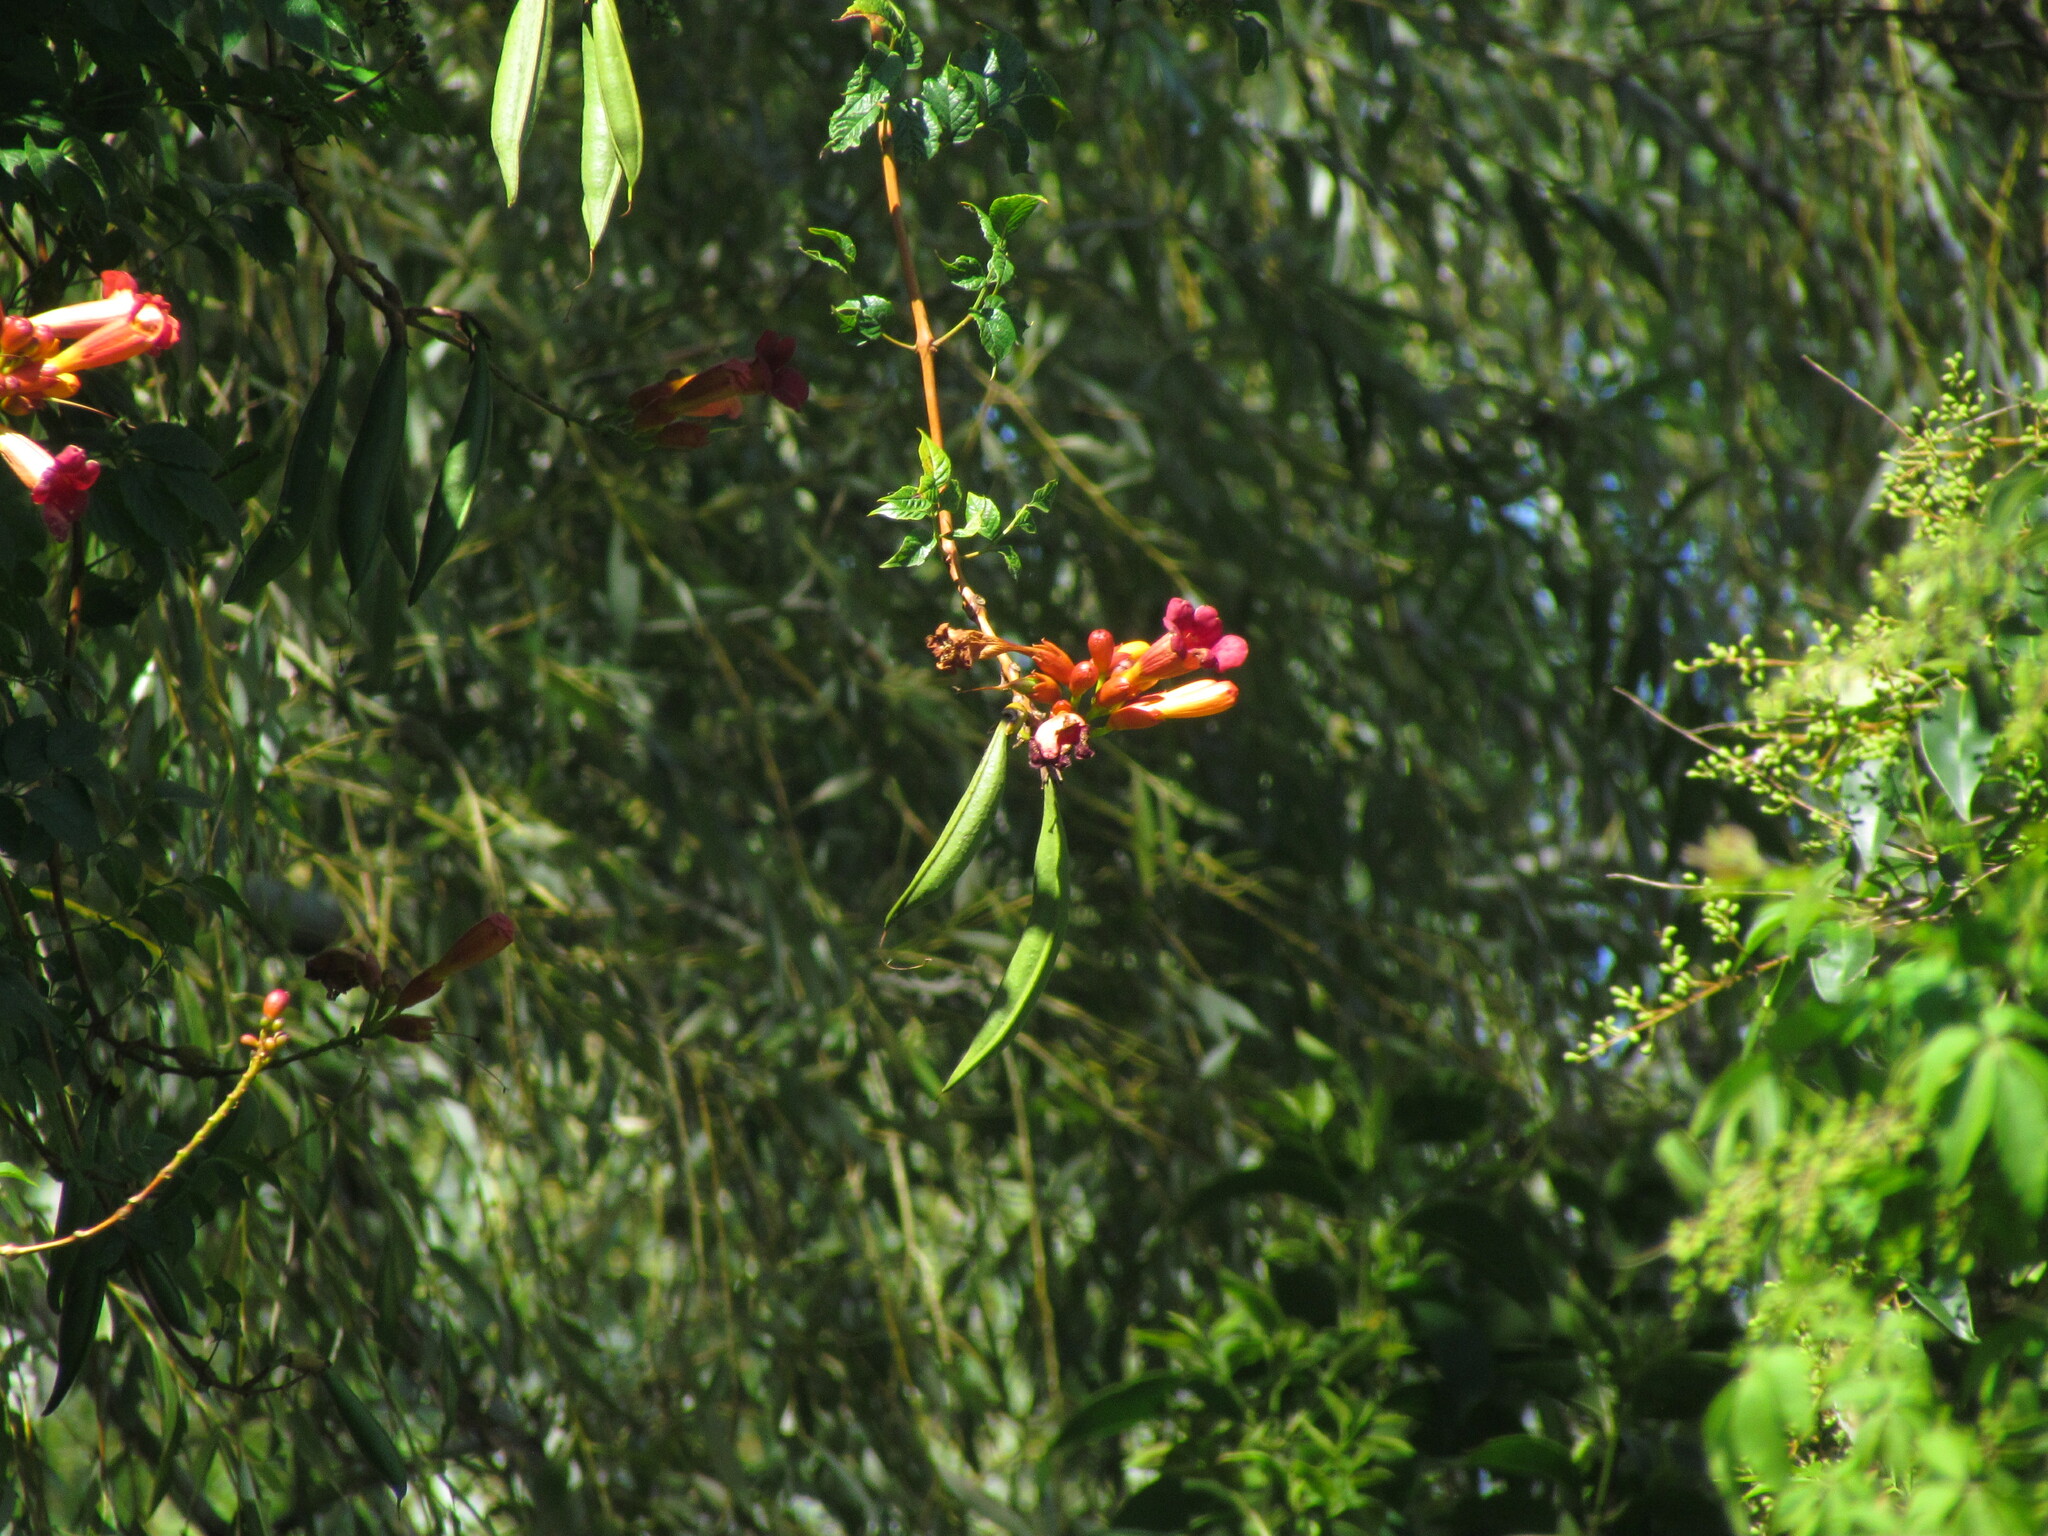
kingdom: Plantae
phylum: Tracheophyta
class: Magnoliopsida
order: Lamiales
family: Bignoniaceae
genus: Campsis
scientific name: Campsis radicans
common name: Trumpet-creeper
